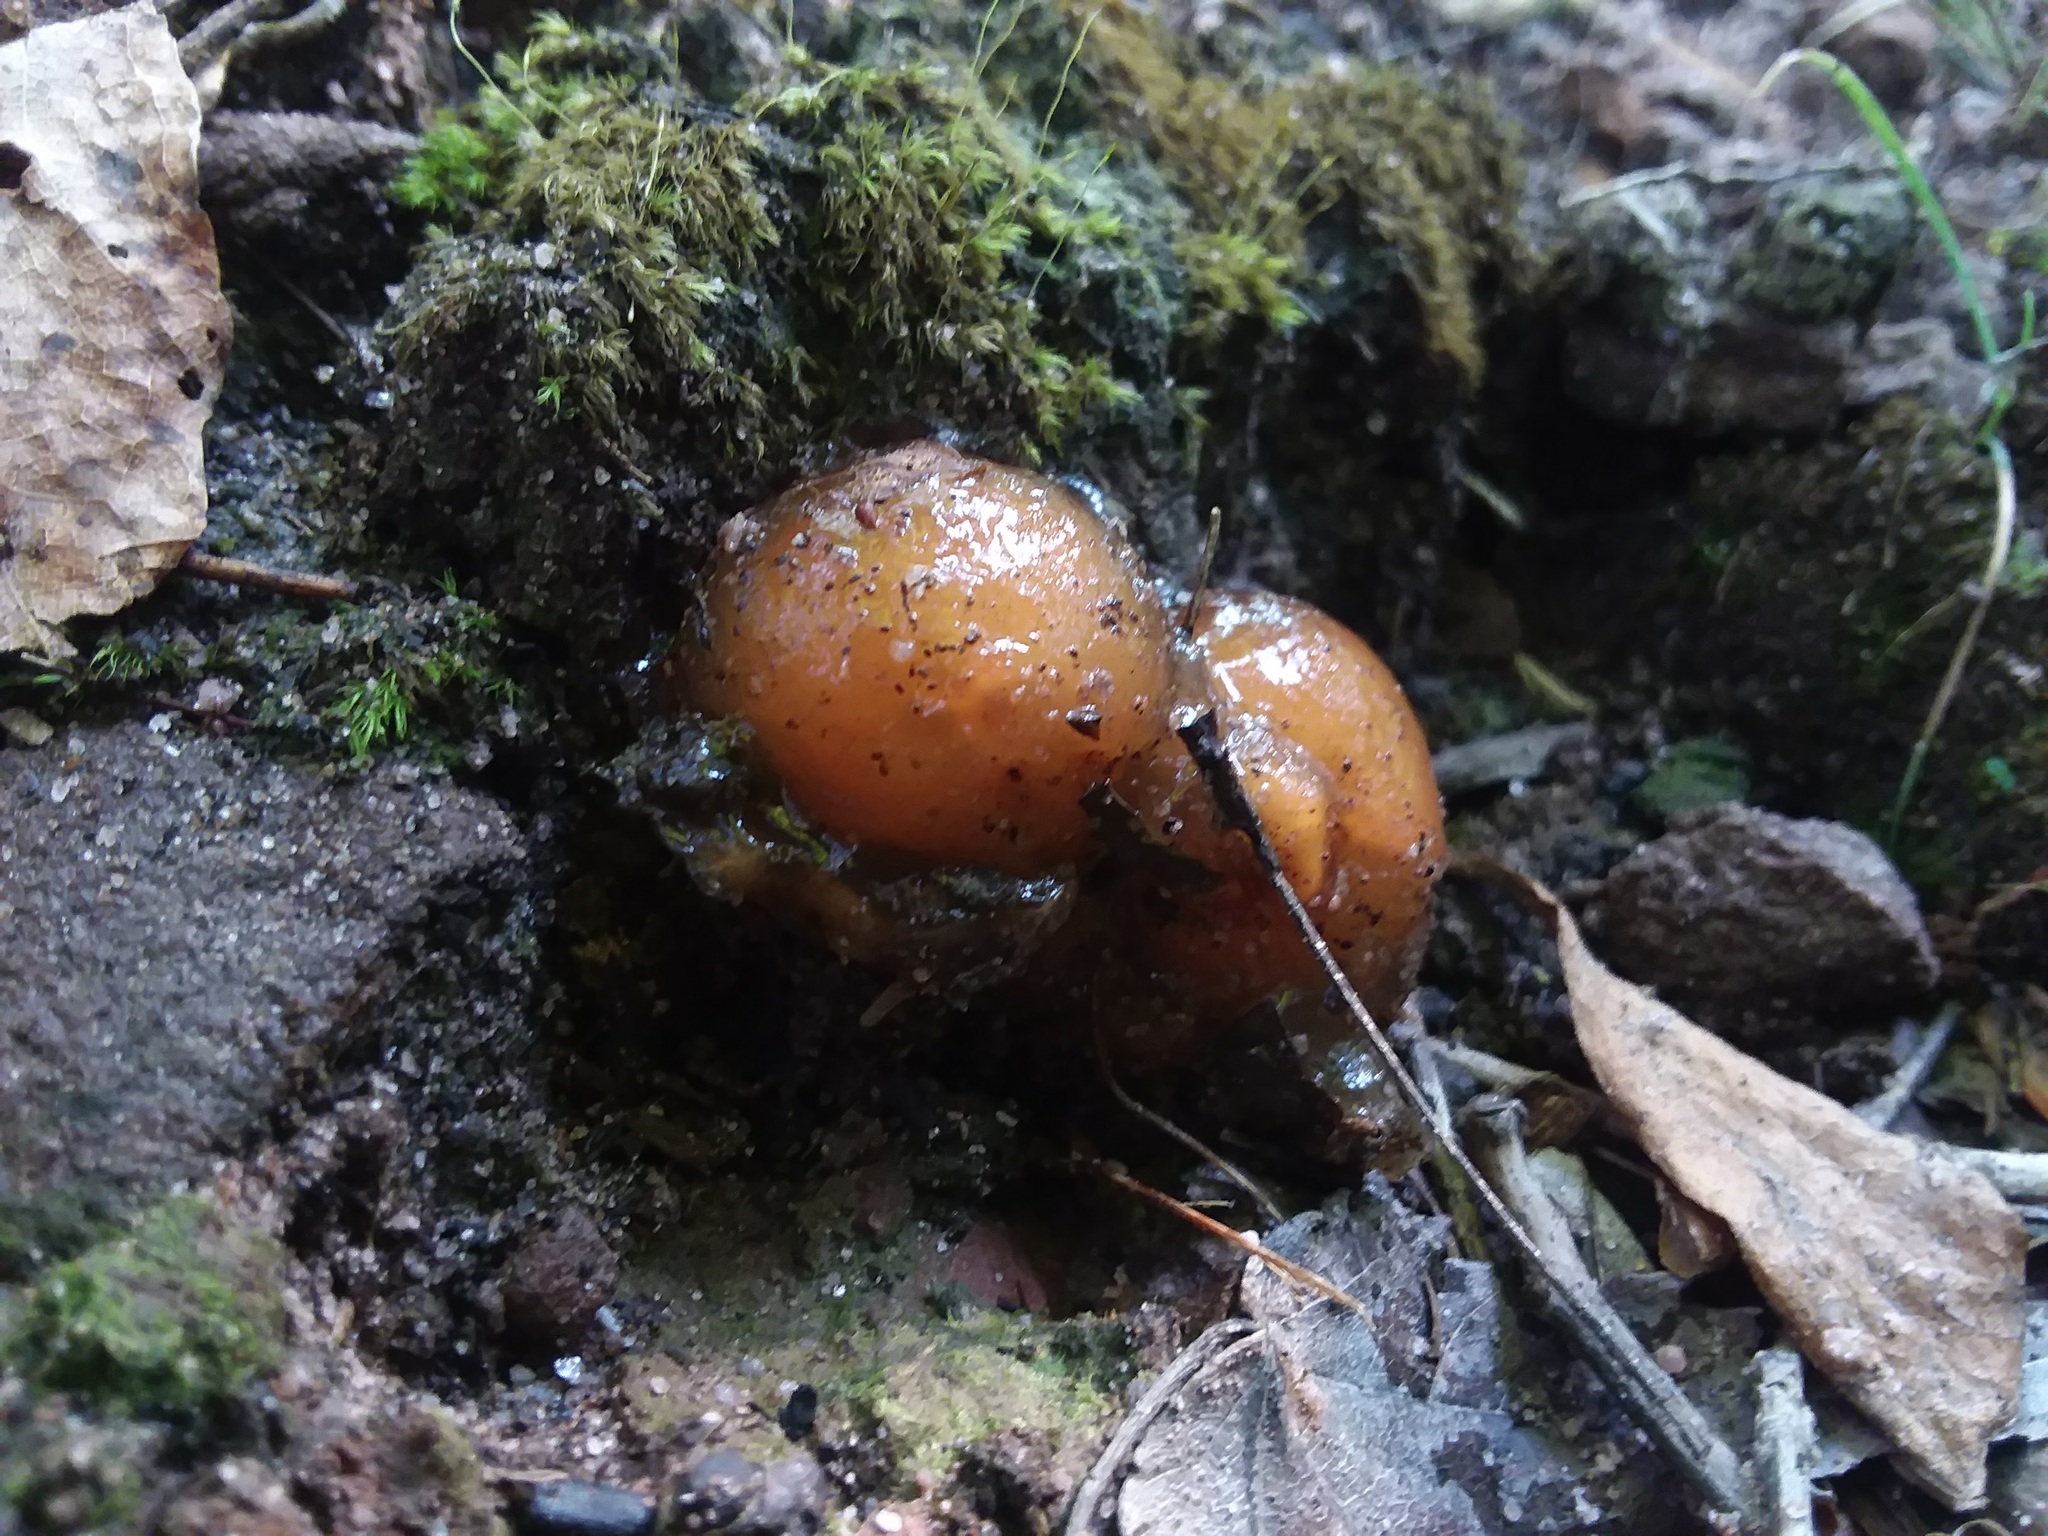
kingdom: Fungi
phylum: Basidiomycota
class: Agaricomycetes
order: Boletales
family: Calostomataceae
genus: Calostoma
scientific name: Calostoma cinnabarinum
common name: Stalked puffball-in-aspic
